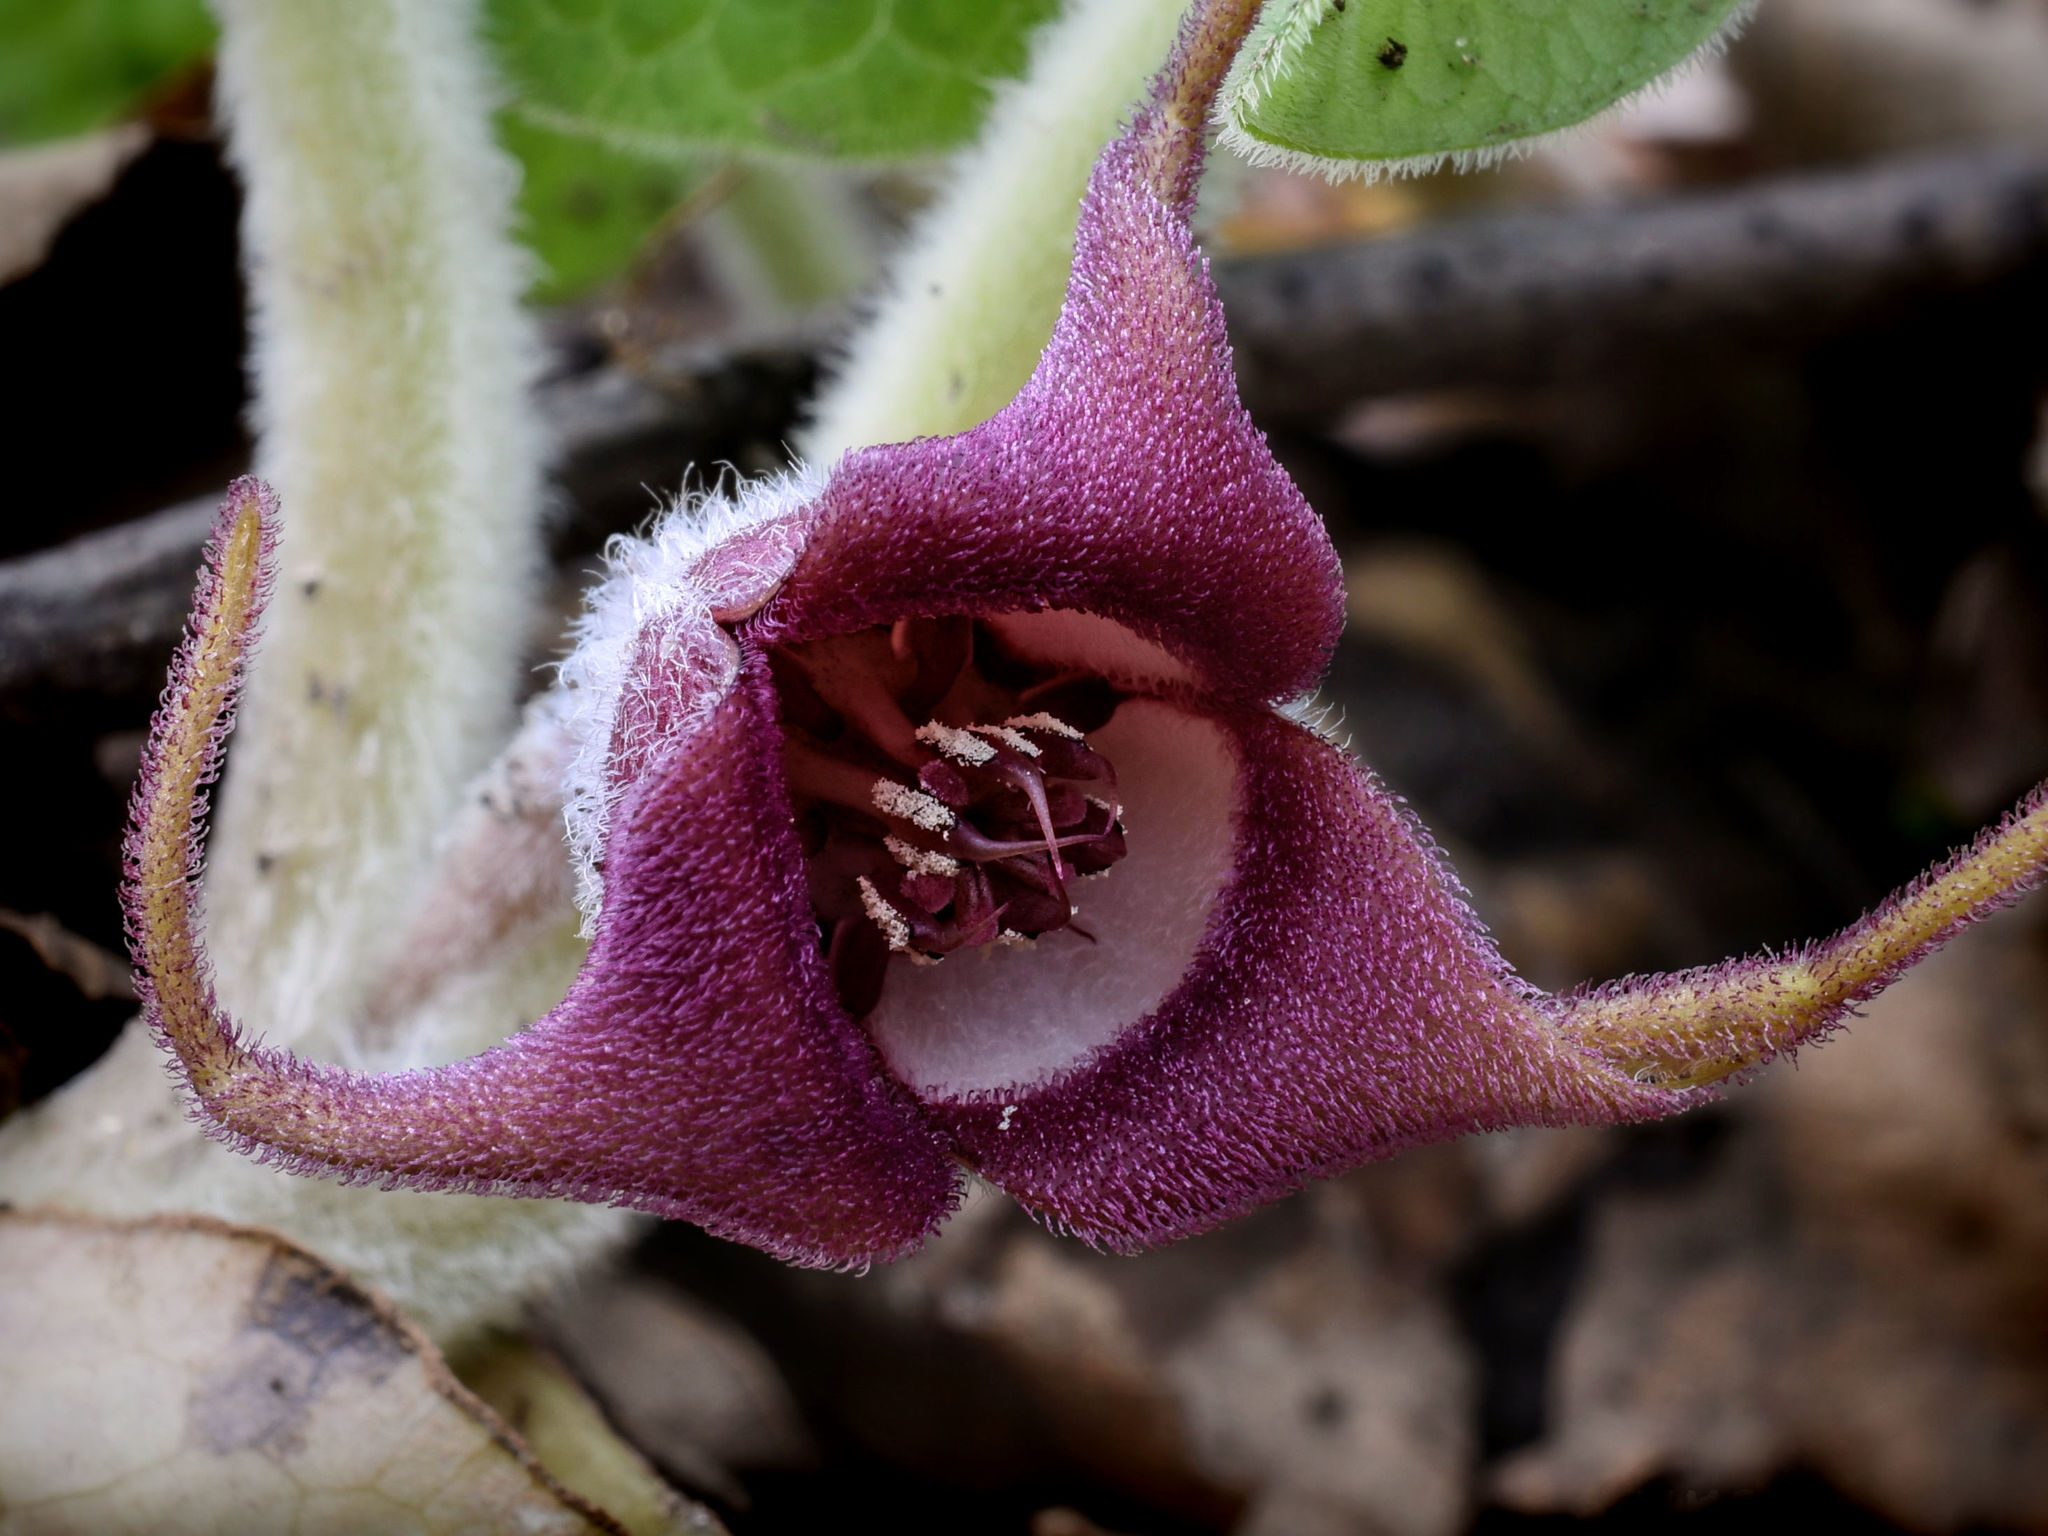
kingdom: Plantae
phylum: Tracheophyta
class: Magnoliopsida
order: Piperales
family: Aristolochiaceae
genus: Asarum
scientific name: Asarum canadense
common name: Wild ginger
